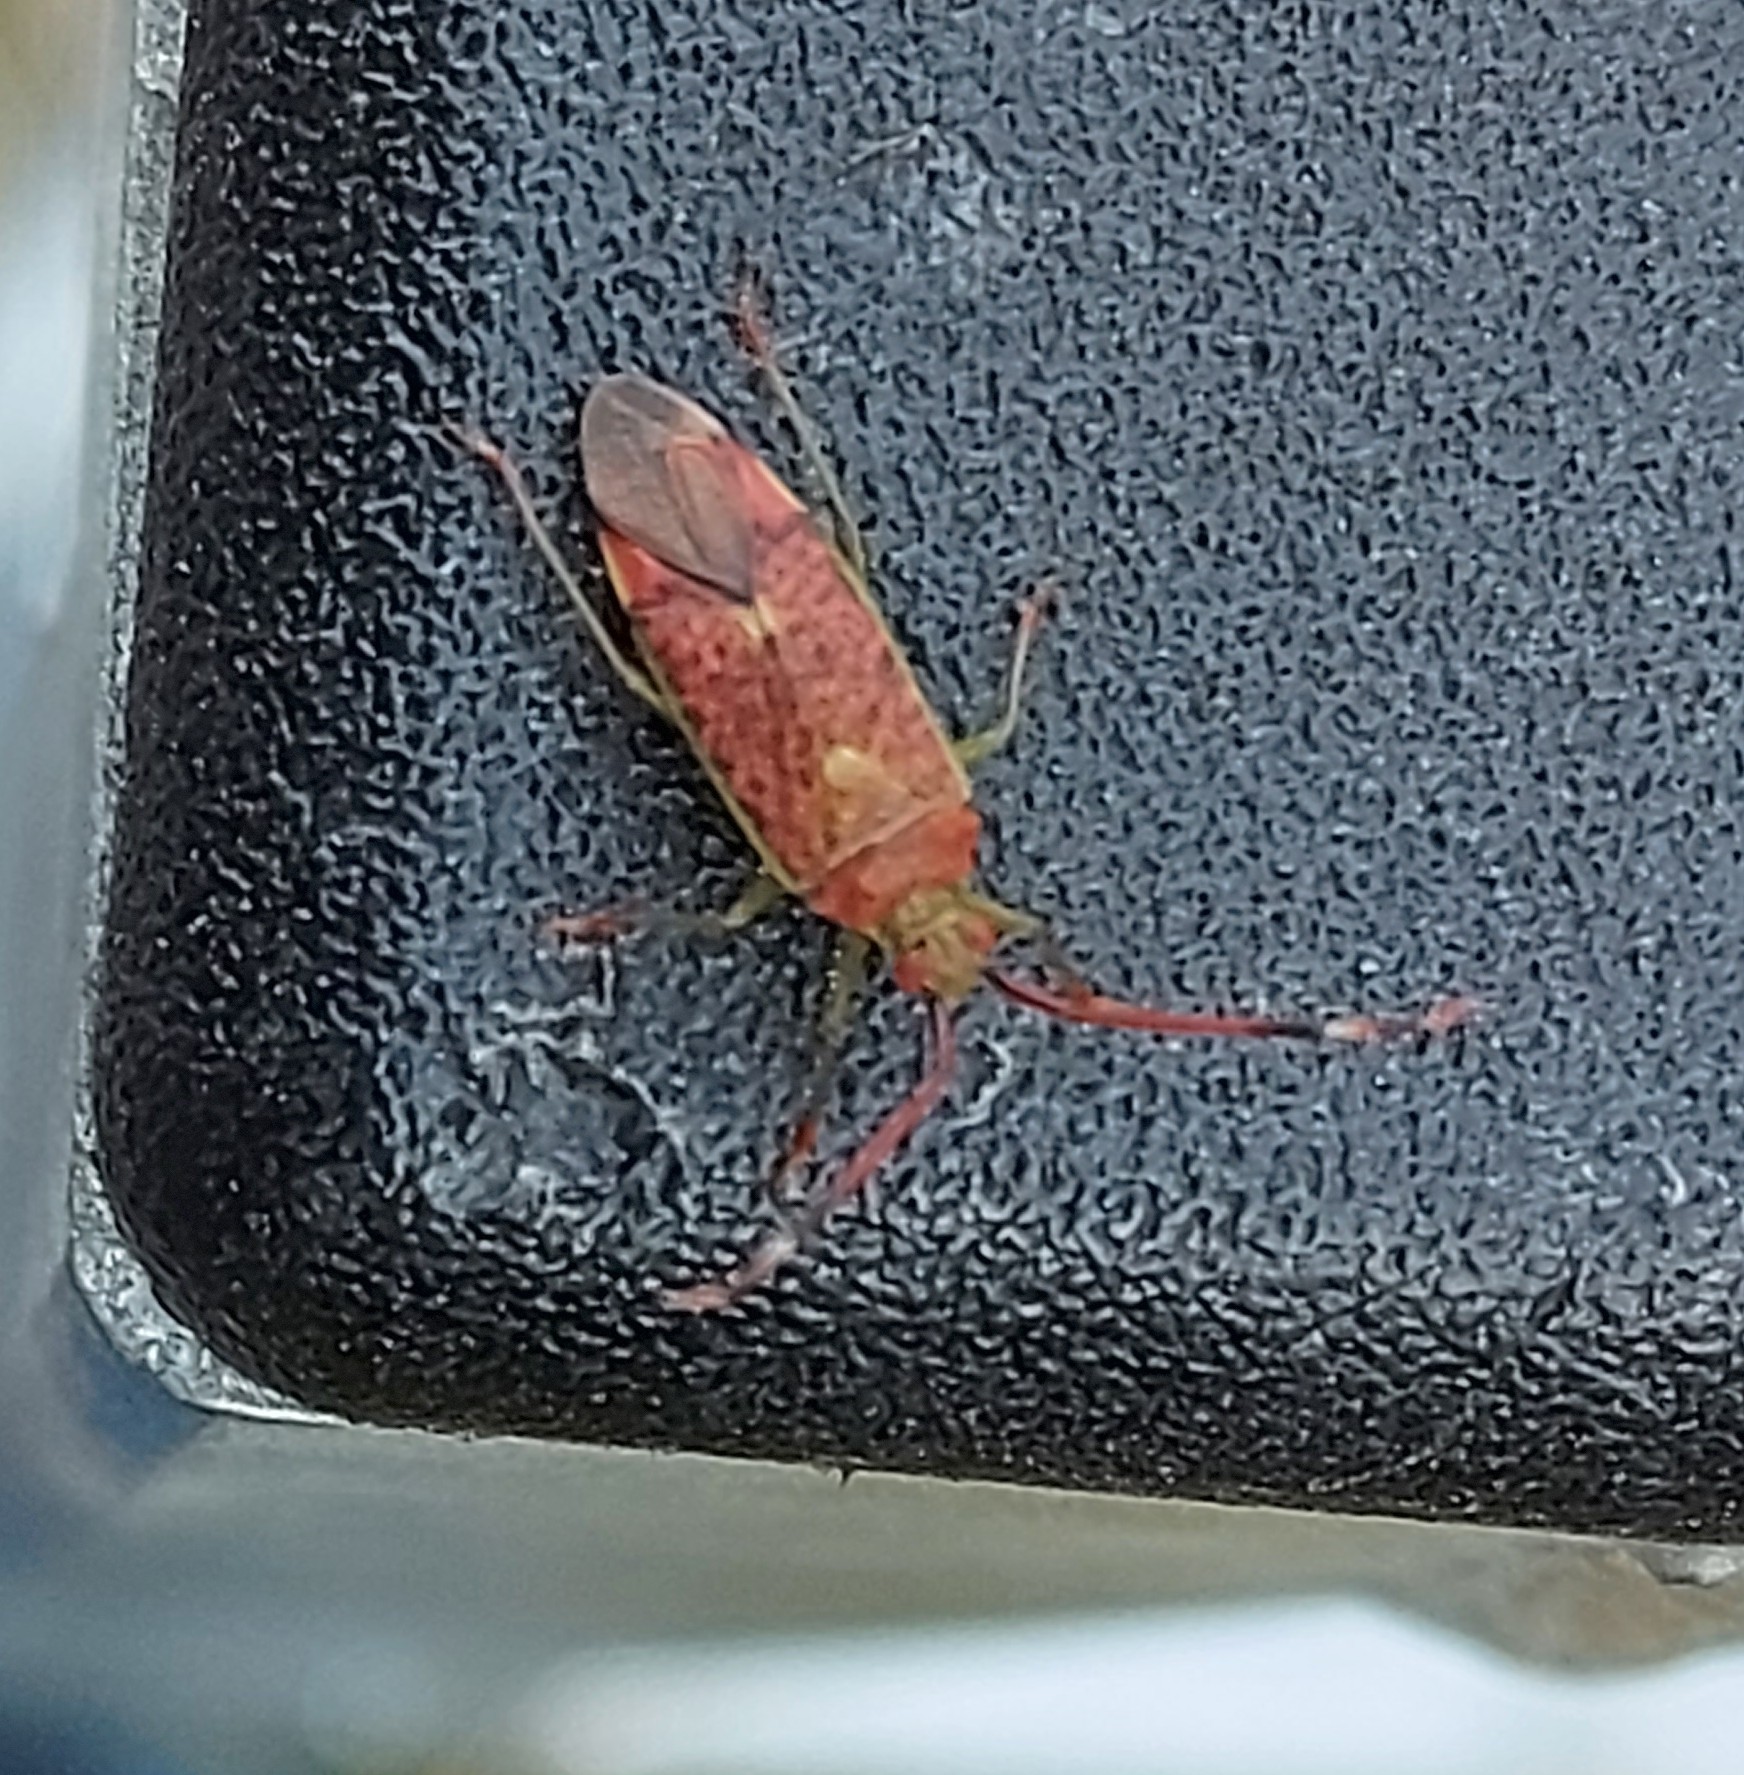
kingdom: Animalia
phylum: Arthropoda
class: Insecta
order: Hemiptera
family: Miridae
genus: Pantilius
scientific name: Pantilius tunicatus
